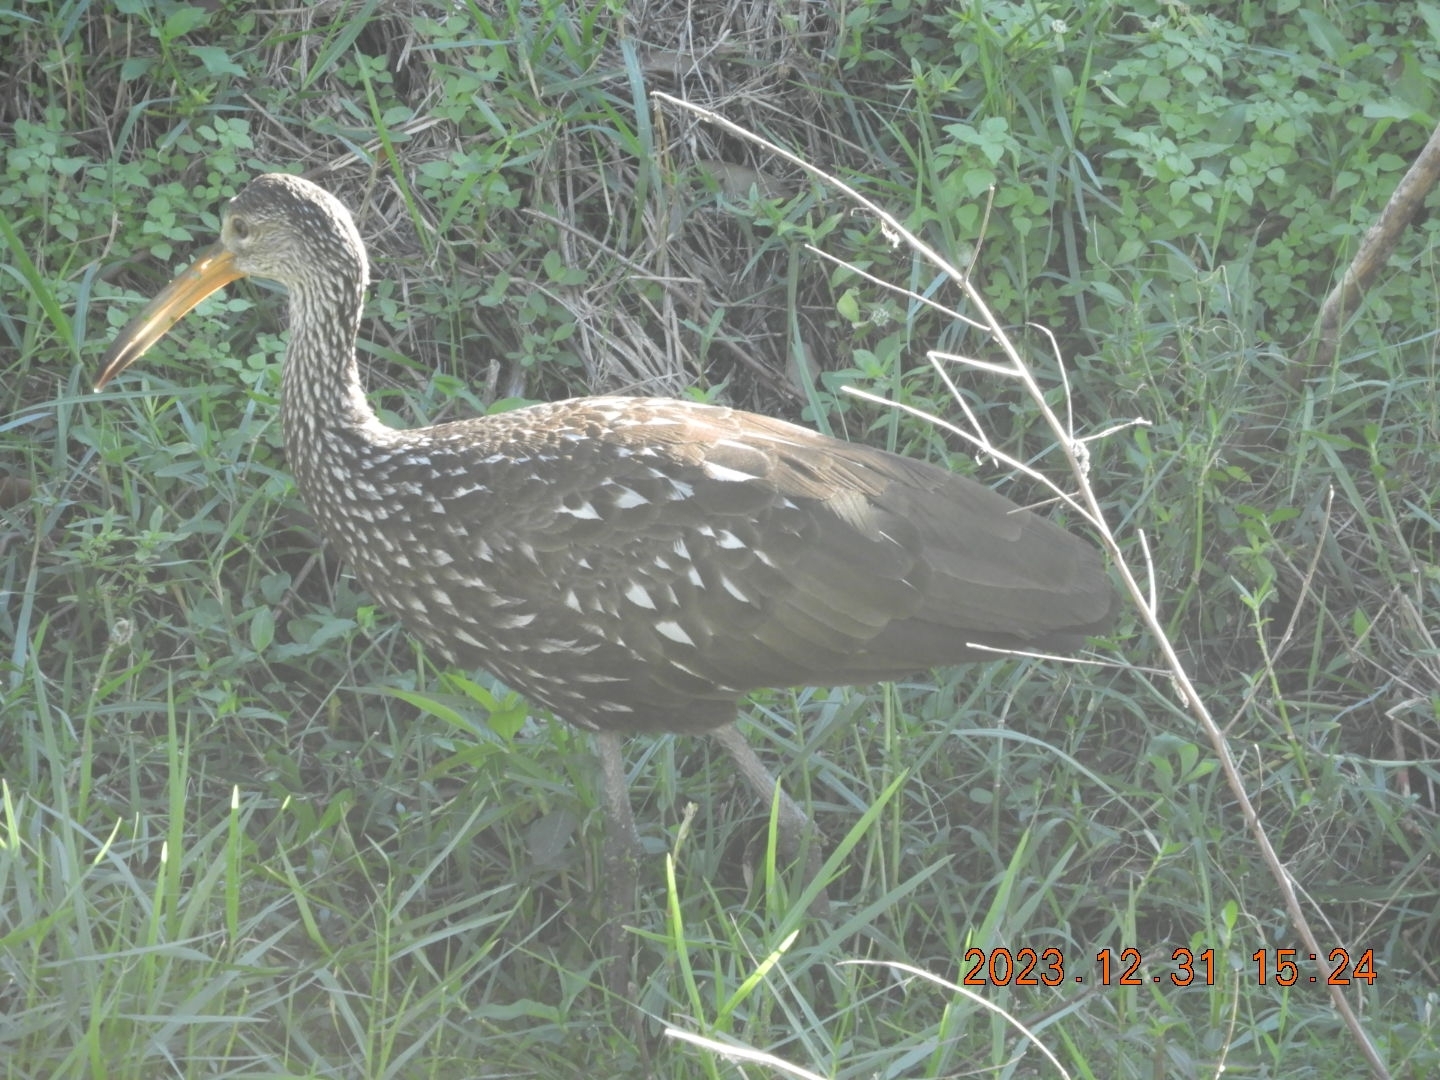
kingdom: Animalia
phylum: Chordata
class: Aves
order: Gruiformes
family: Aramidae
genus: Aramus
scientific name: Aramus guarauna
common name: Limpkin
